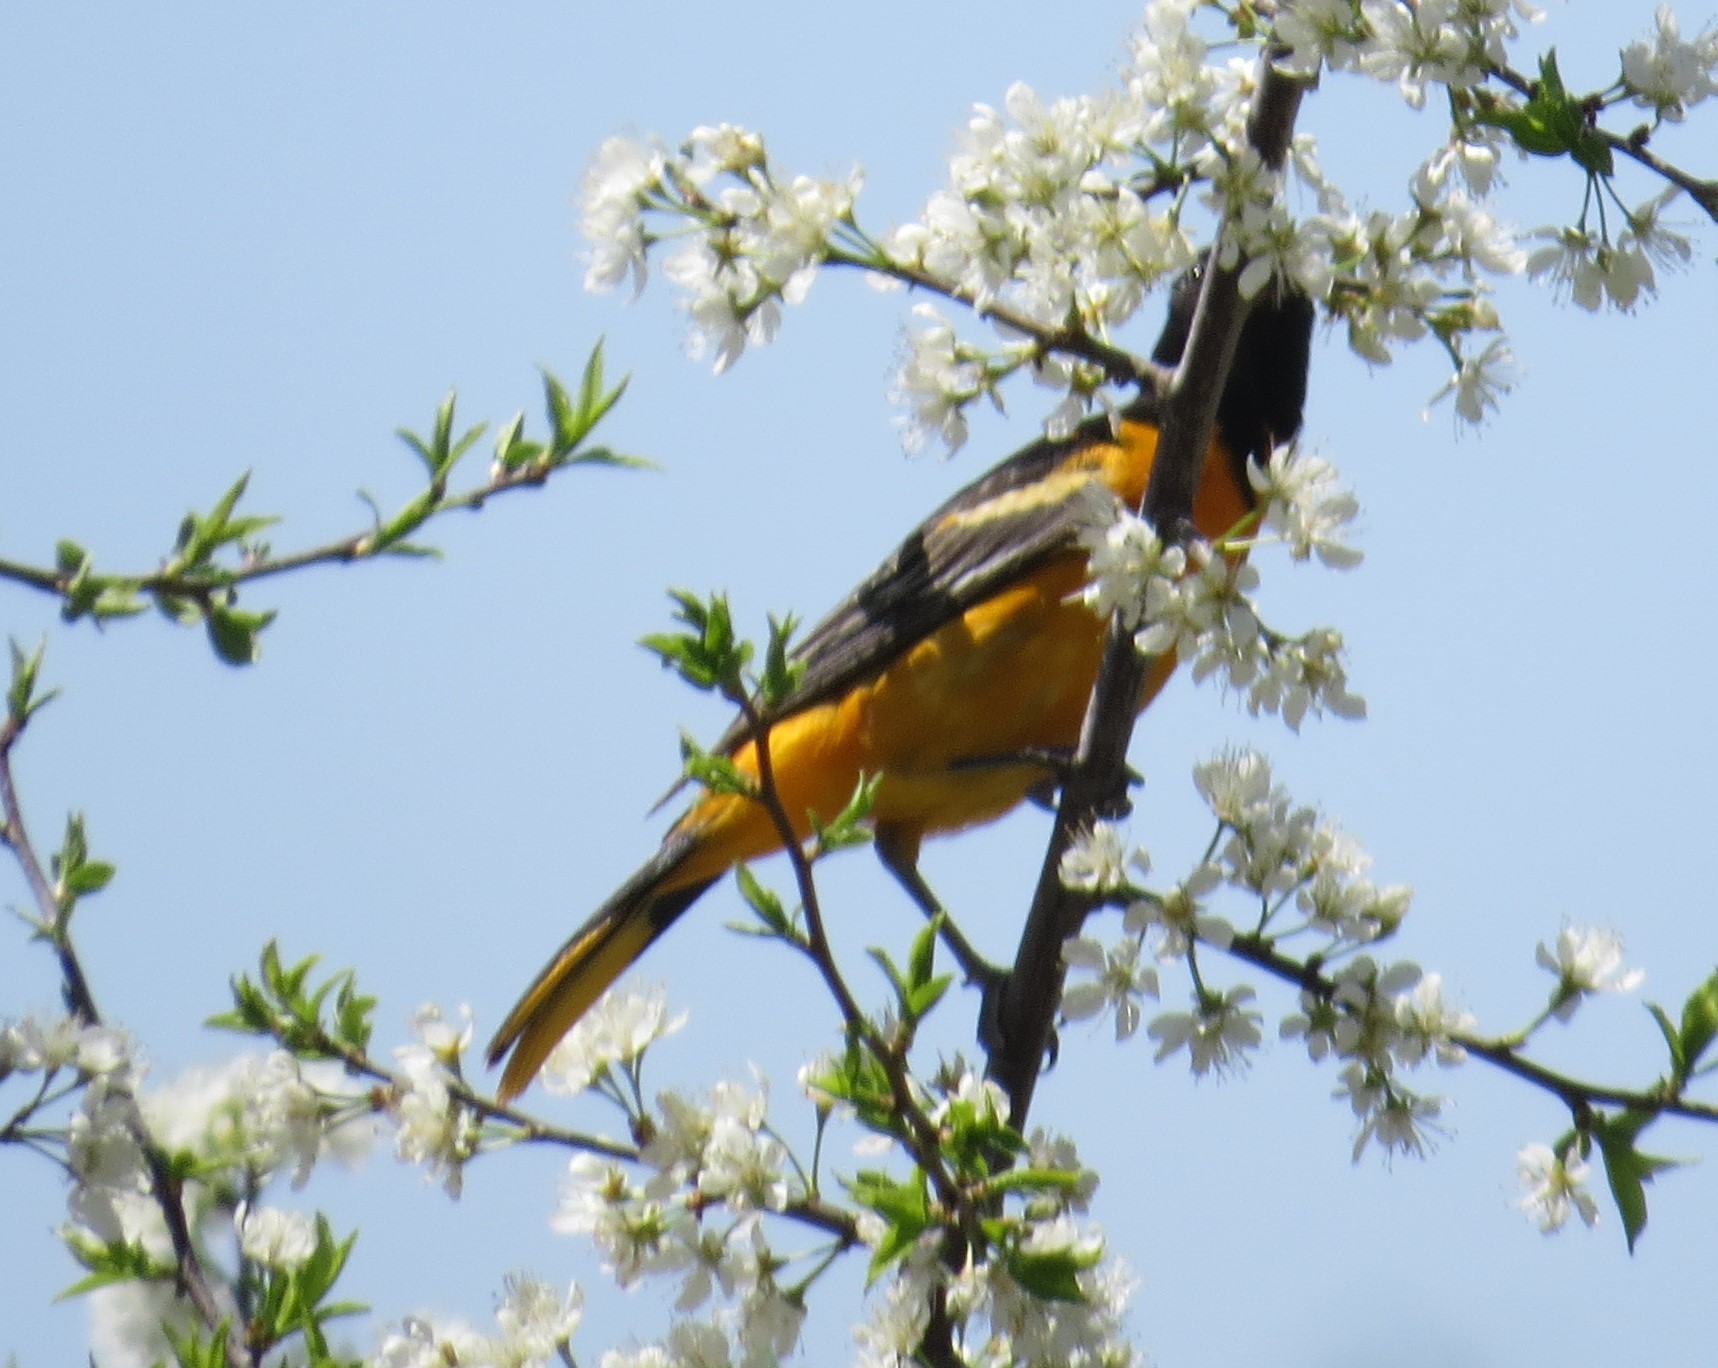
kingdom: Animalia
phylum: Chordata
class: Aves
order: Passeriformes
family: Icteridae
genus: Icterus
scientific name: Icterus galbula
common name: Baltimore oriole
